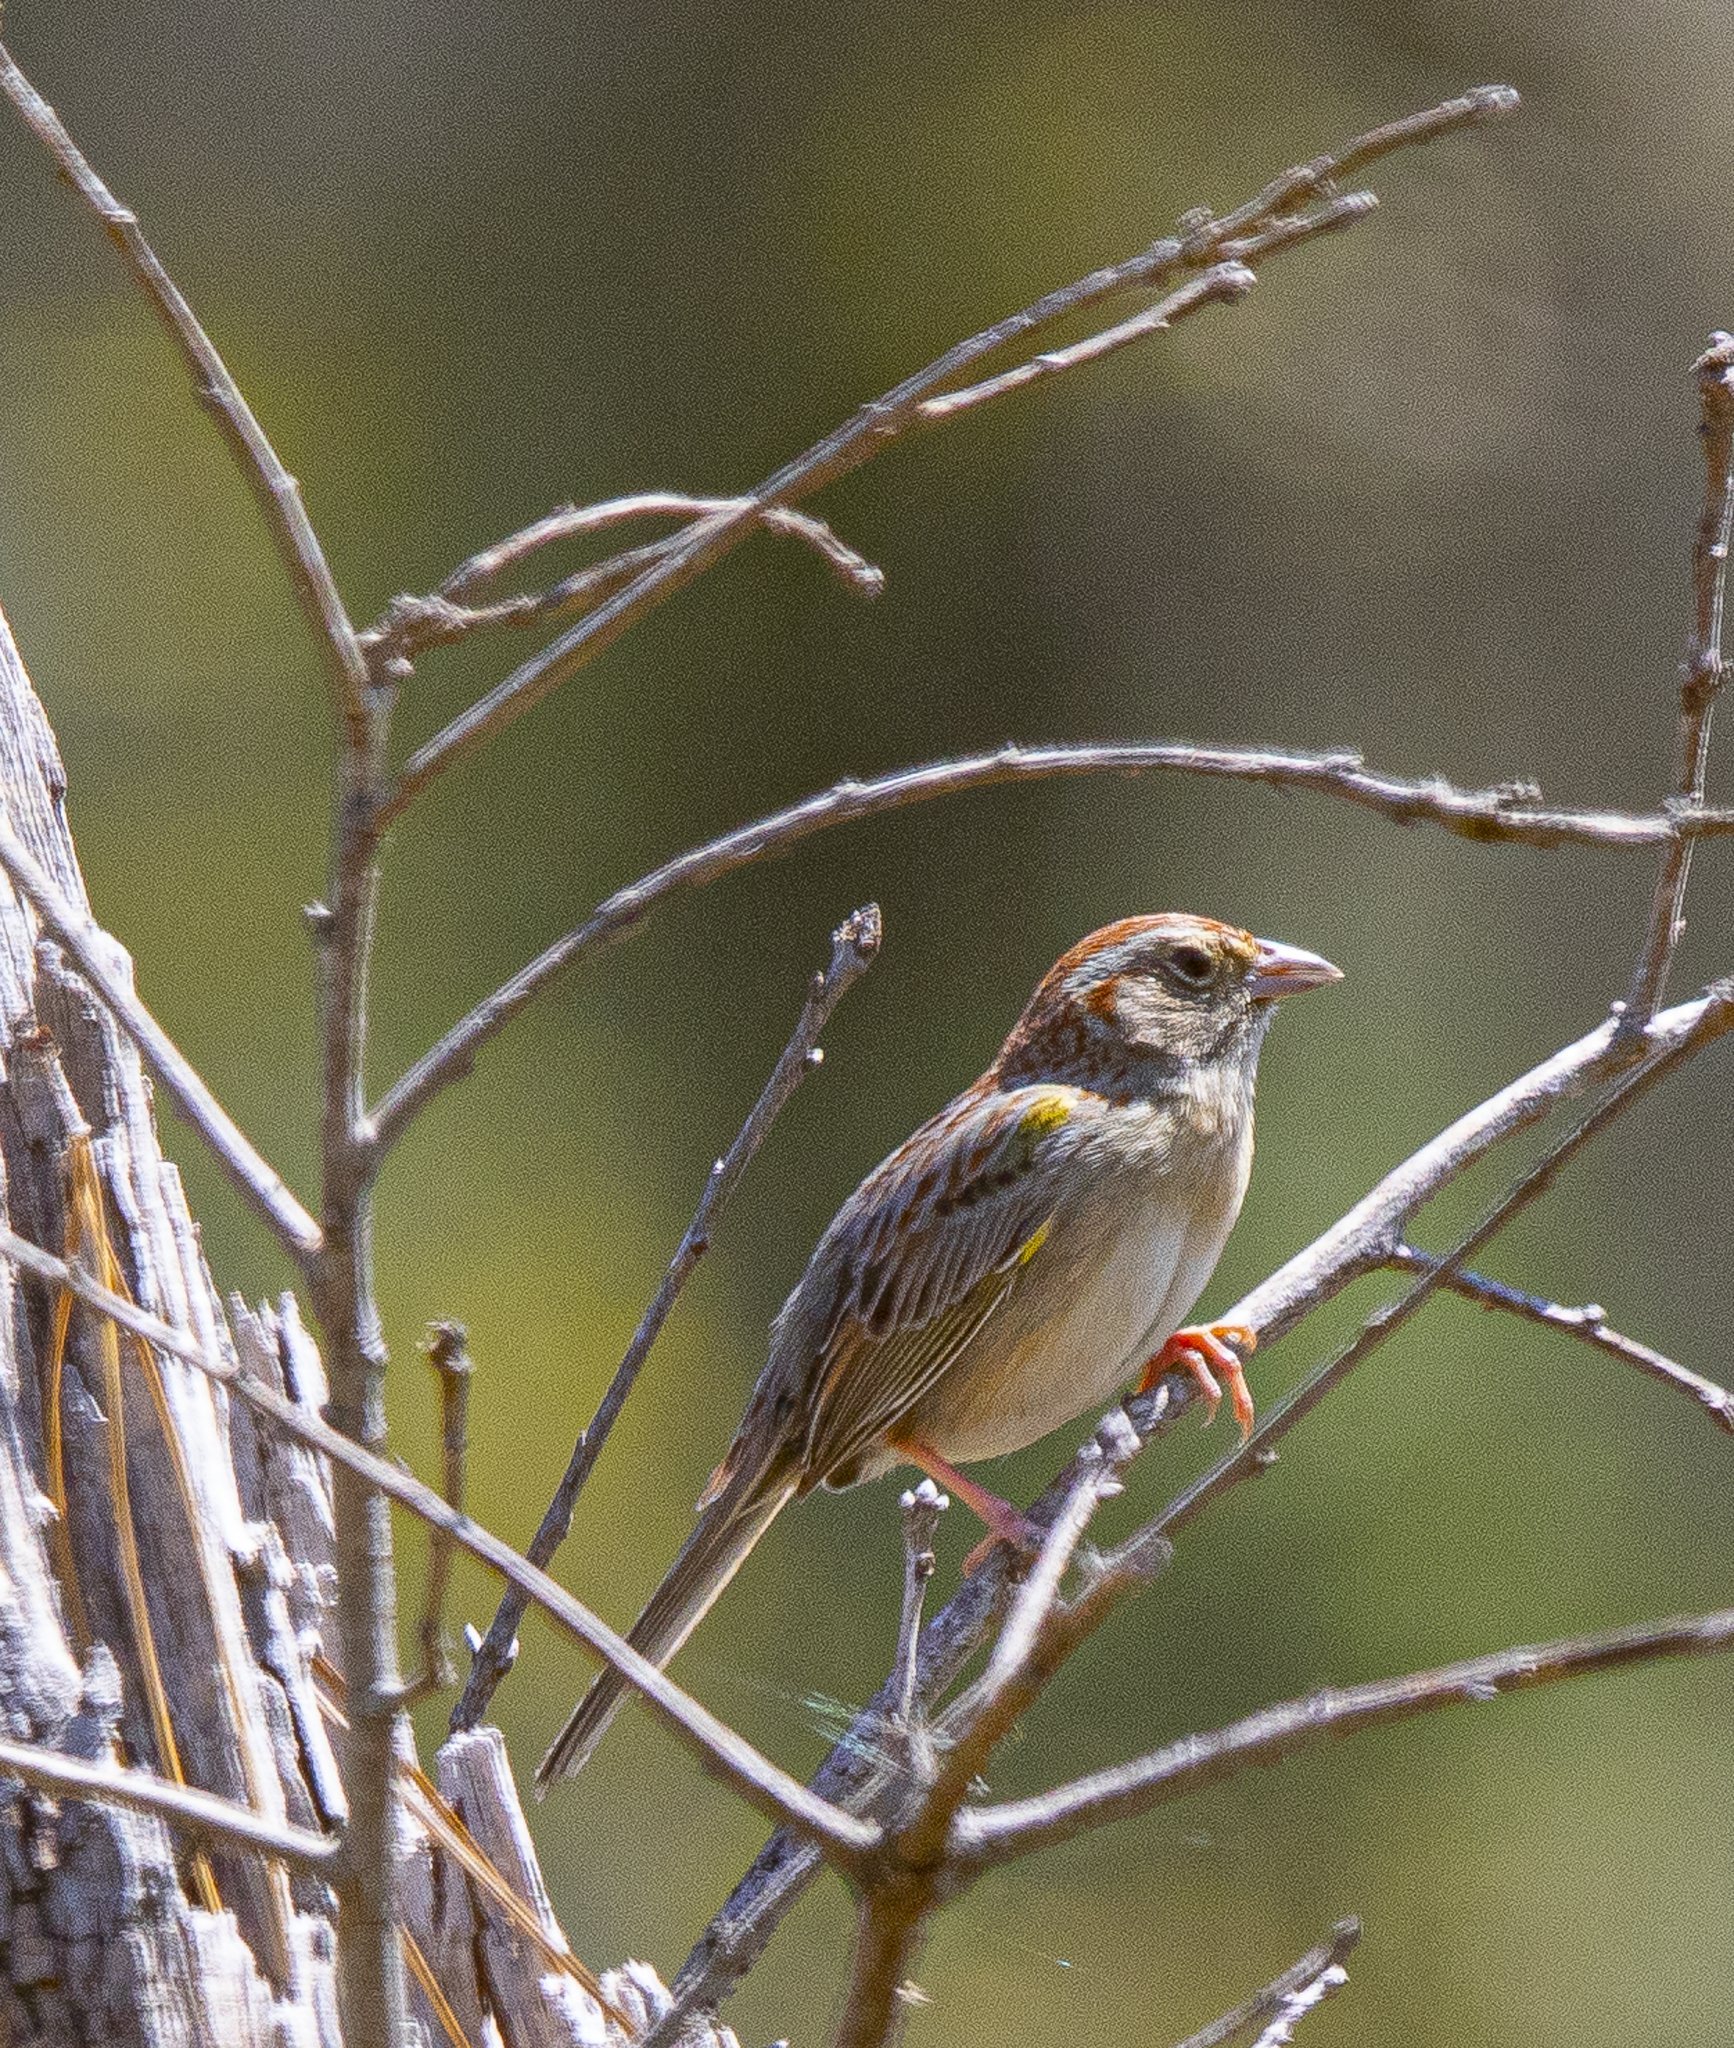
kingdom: Animalia
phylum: Chordata
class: Aves
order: Passeriformes
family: Passerellidae
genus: Peucaea
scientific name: Peucaea aestivalis
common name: Bachman's sparrow
